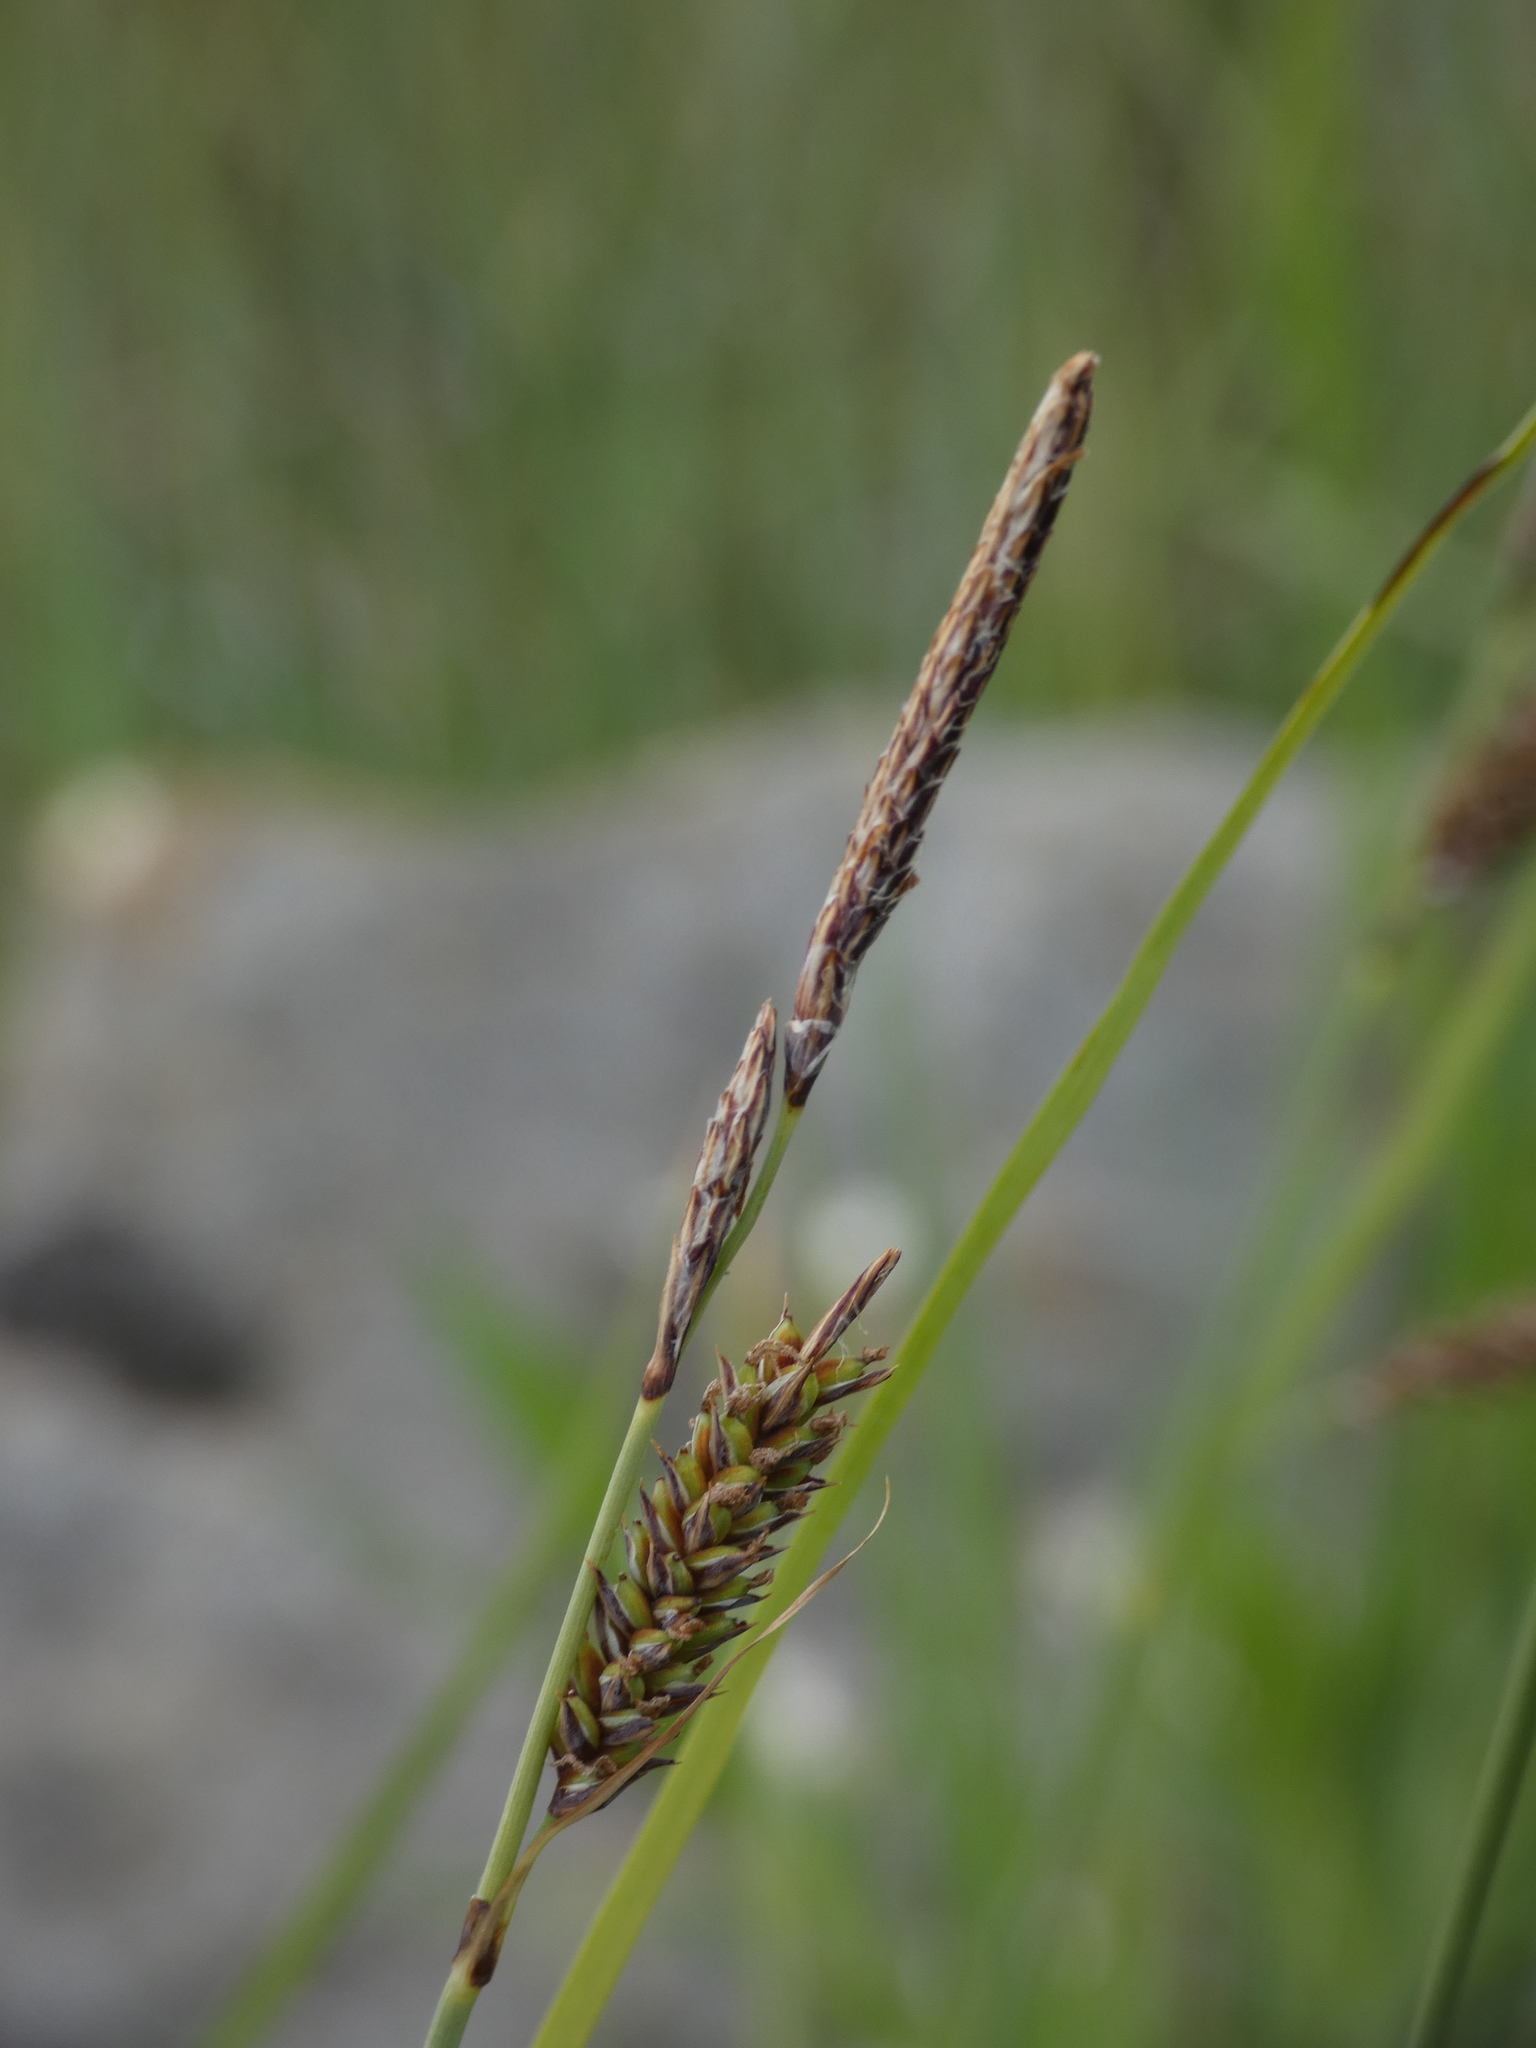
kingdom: Plantae
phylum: Tracheophyta
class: Liliopsida
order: Poales
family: Cyperaceae
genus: Carex
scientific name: Carex flacca
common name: Glaucous sedge
